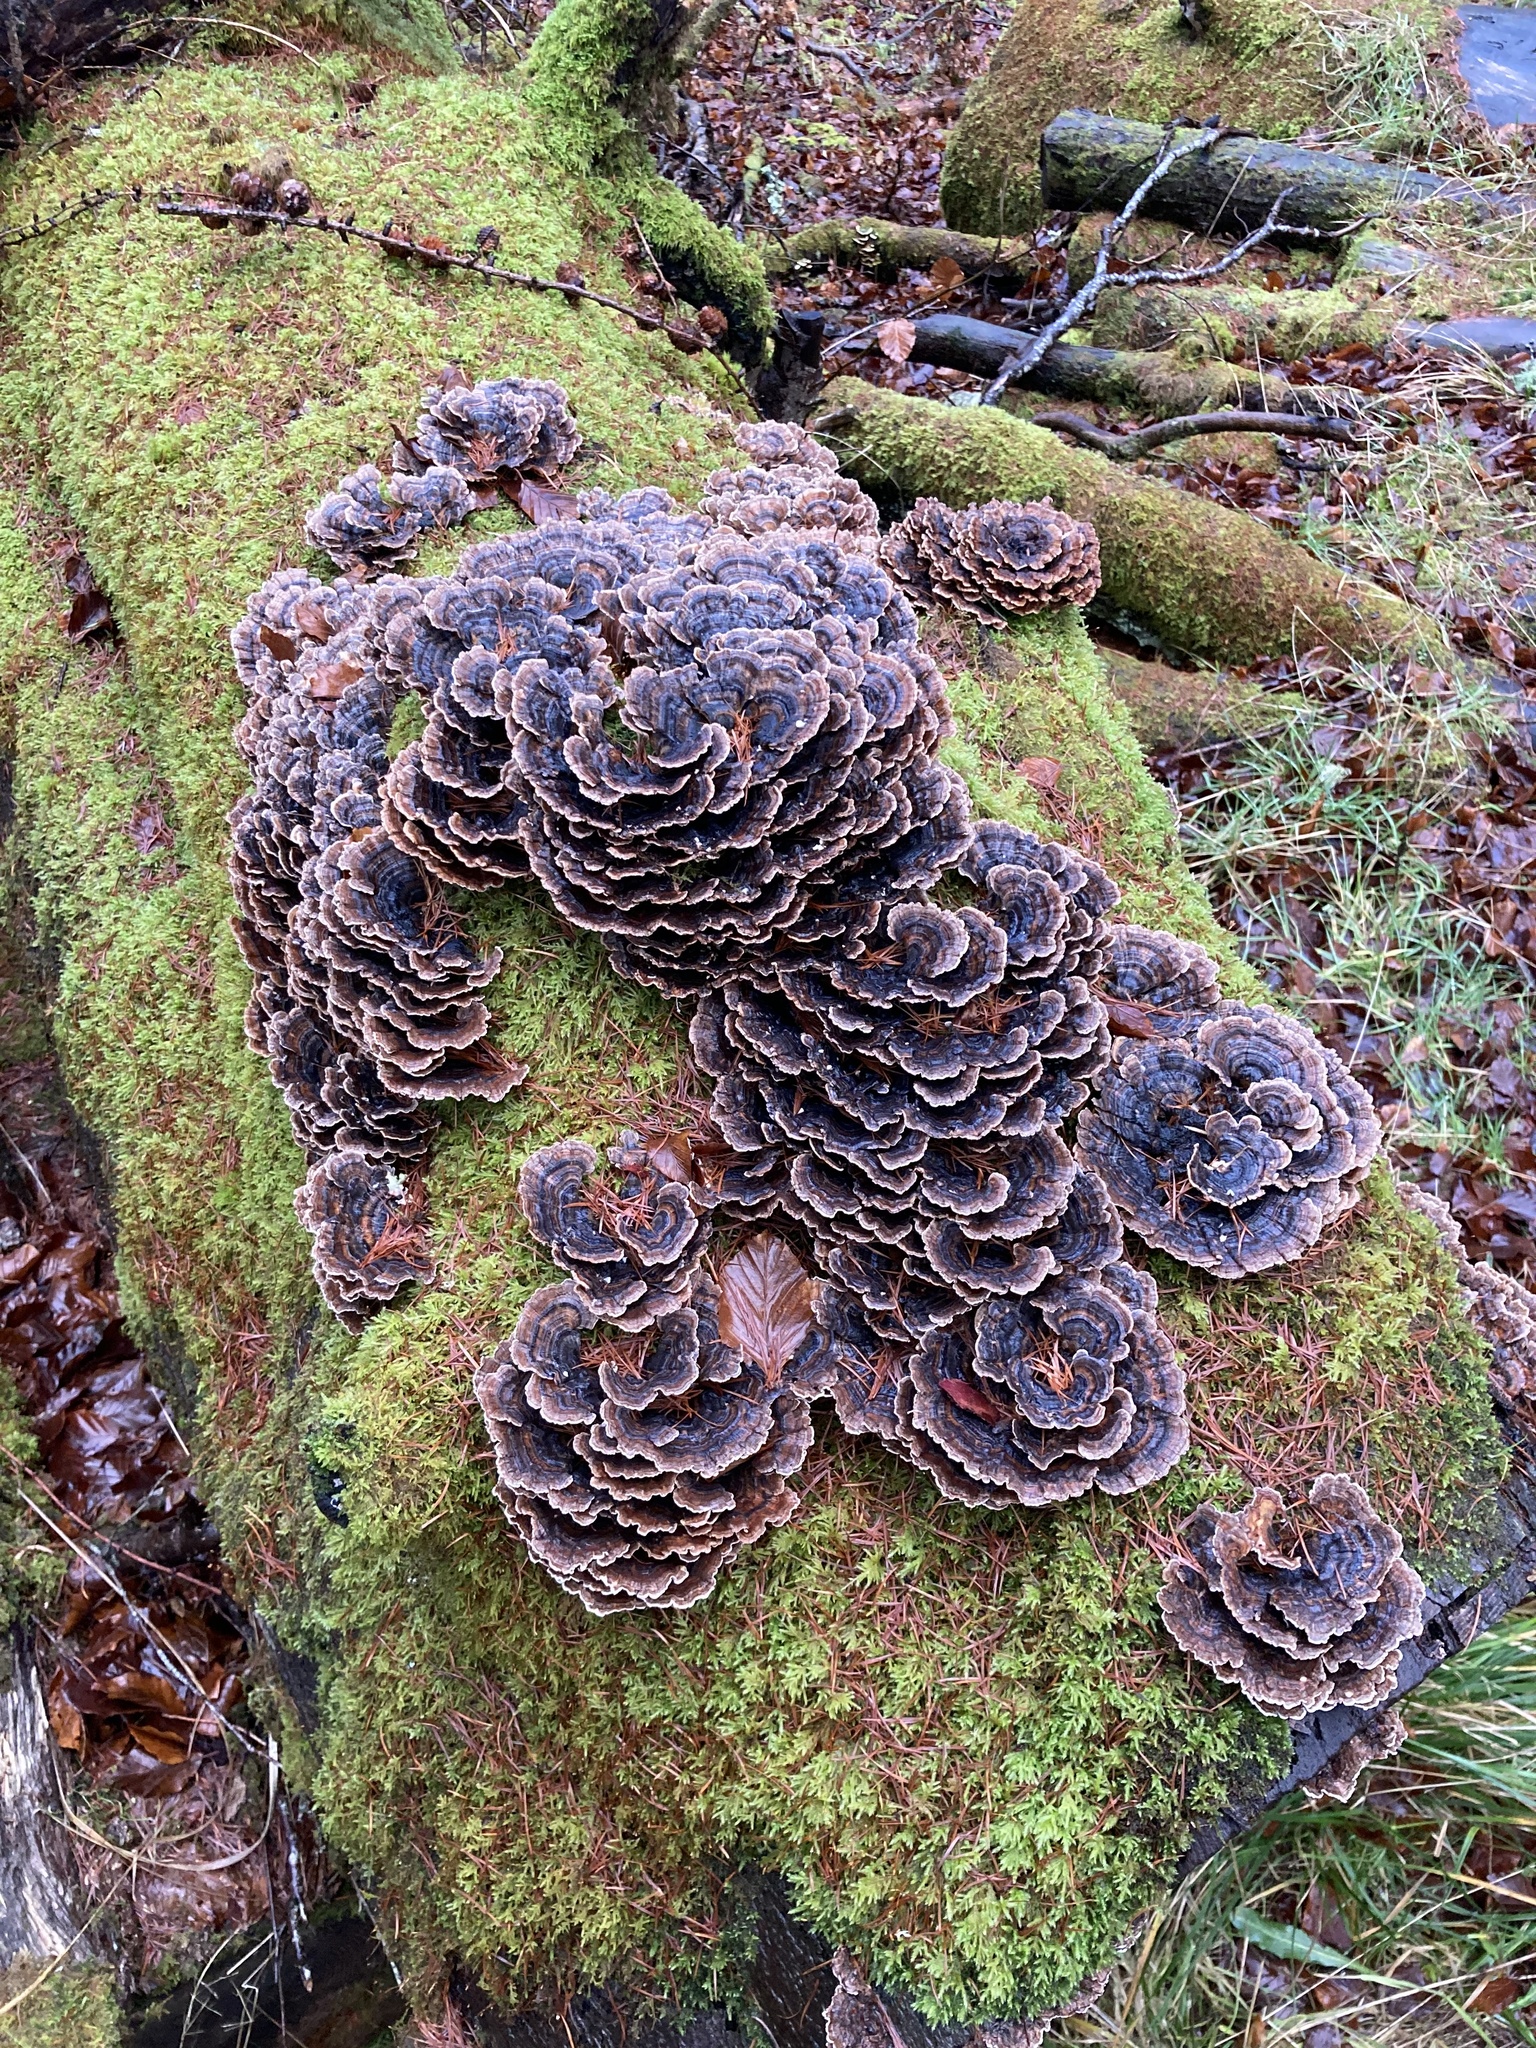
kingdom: Fungi
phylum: Basidiomycota
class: Agaricomycetes
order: Polyporales
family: Polyporaceae
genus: Trametes
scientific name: Trametes versicolor
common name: Turkeytail
